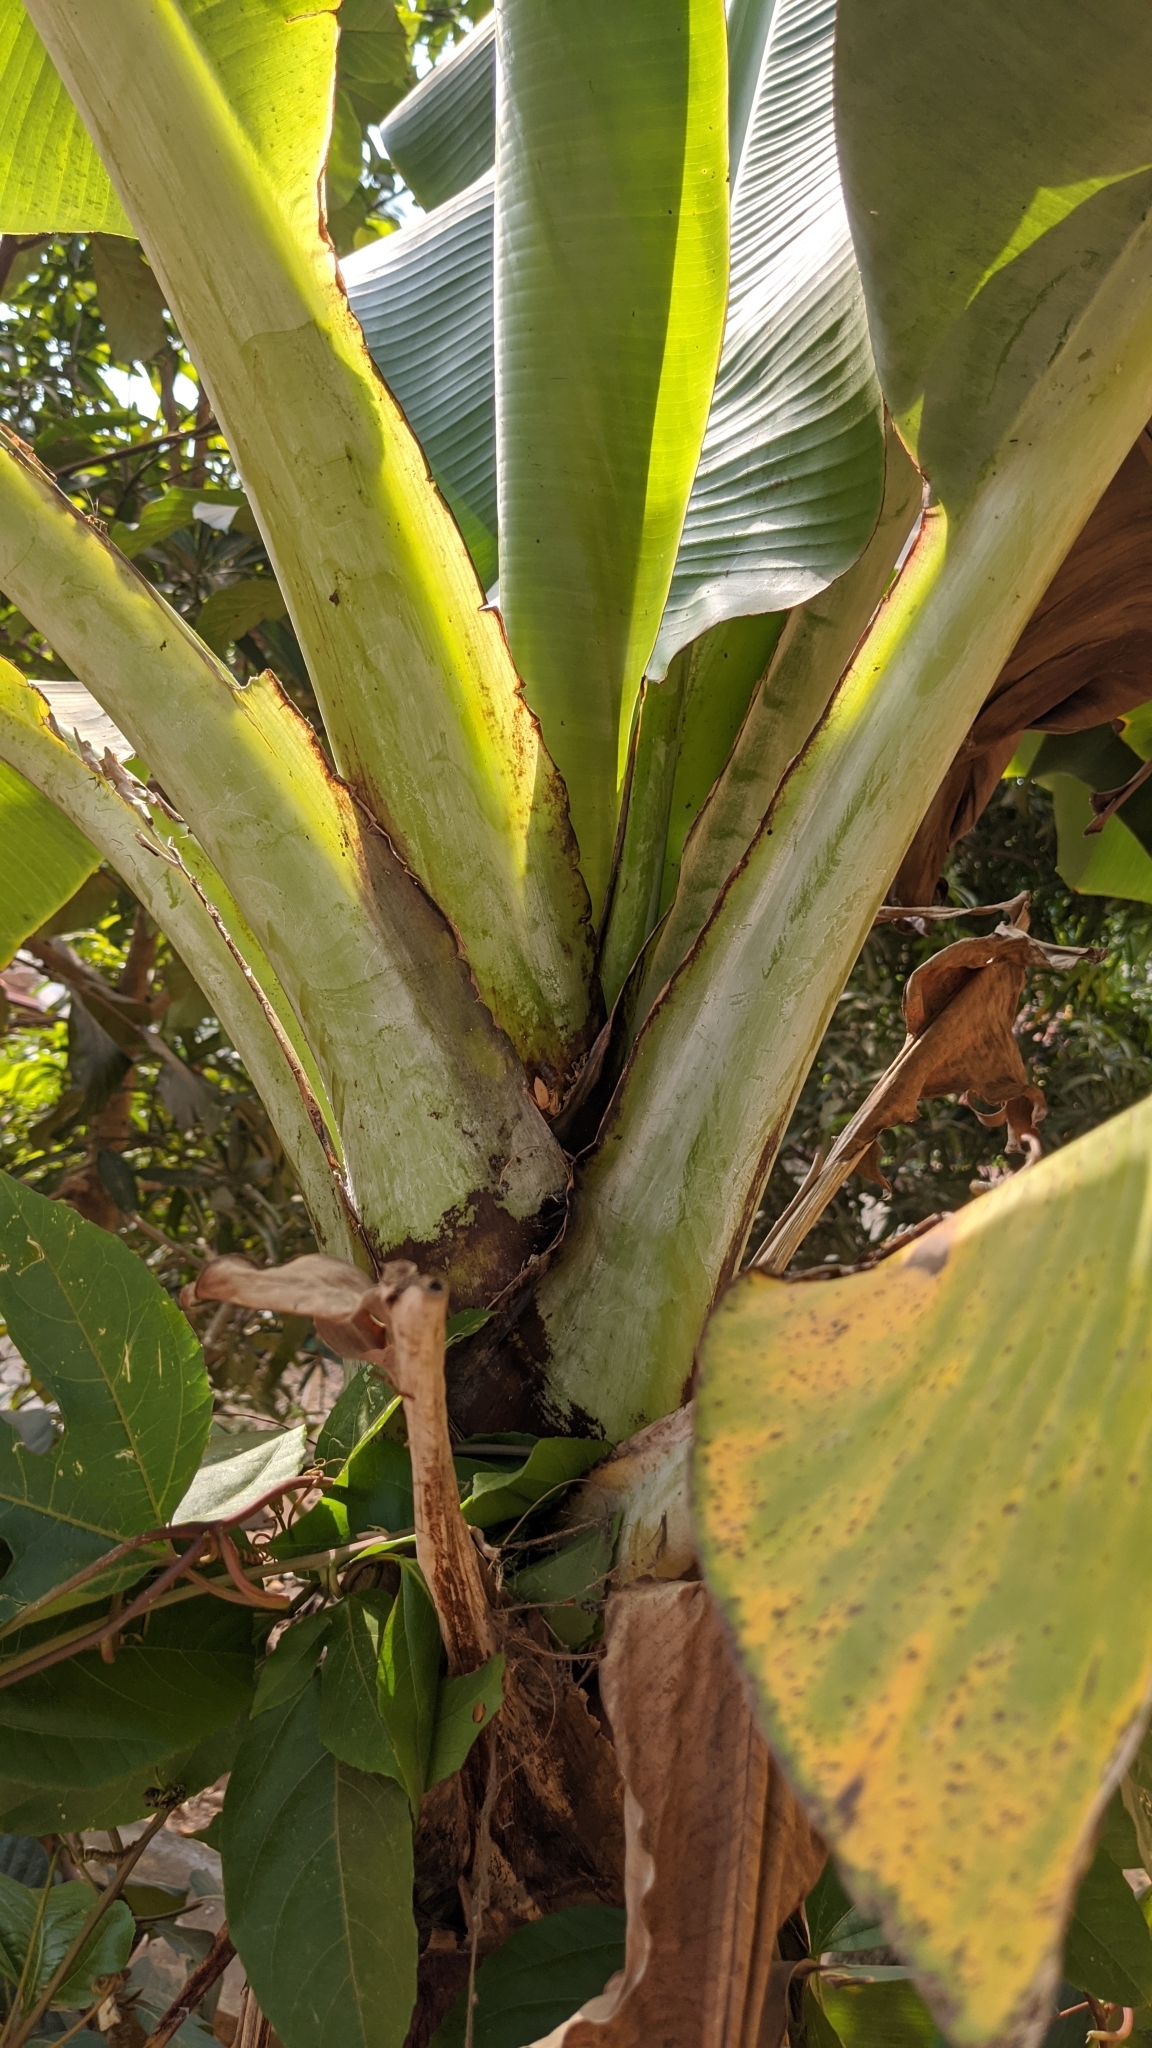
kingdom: Plantae
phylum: Tracheophyta
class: Liliopsida
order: Zingiberales
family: Musaceae
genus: Musa
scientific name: Musa acuminata
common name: Edible banana
